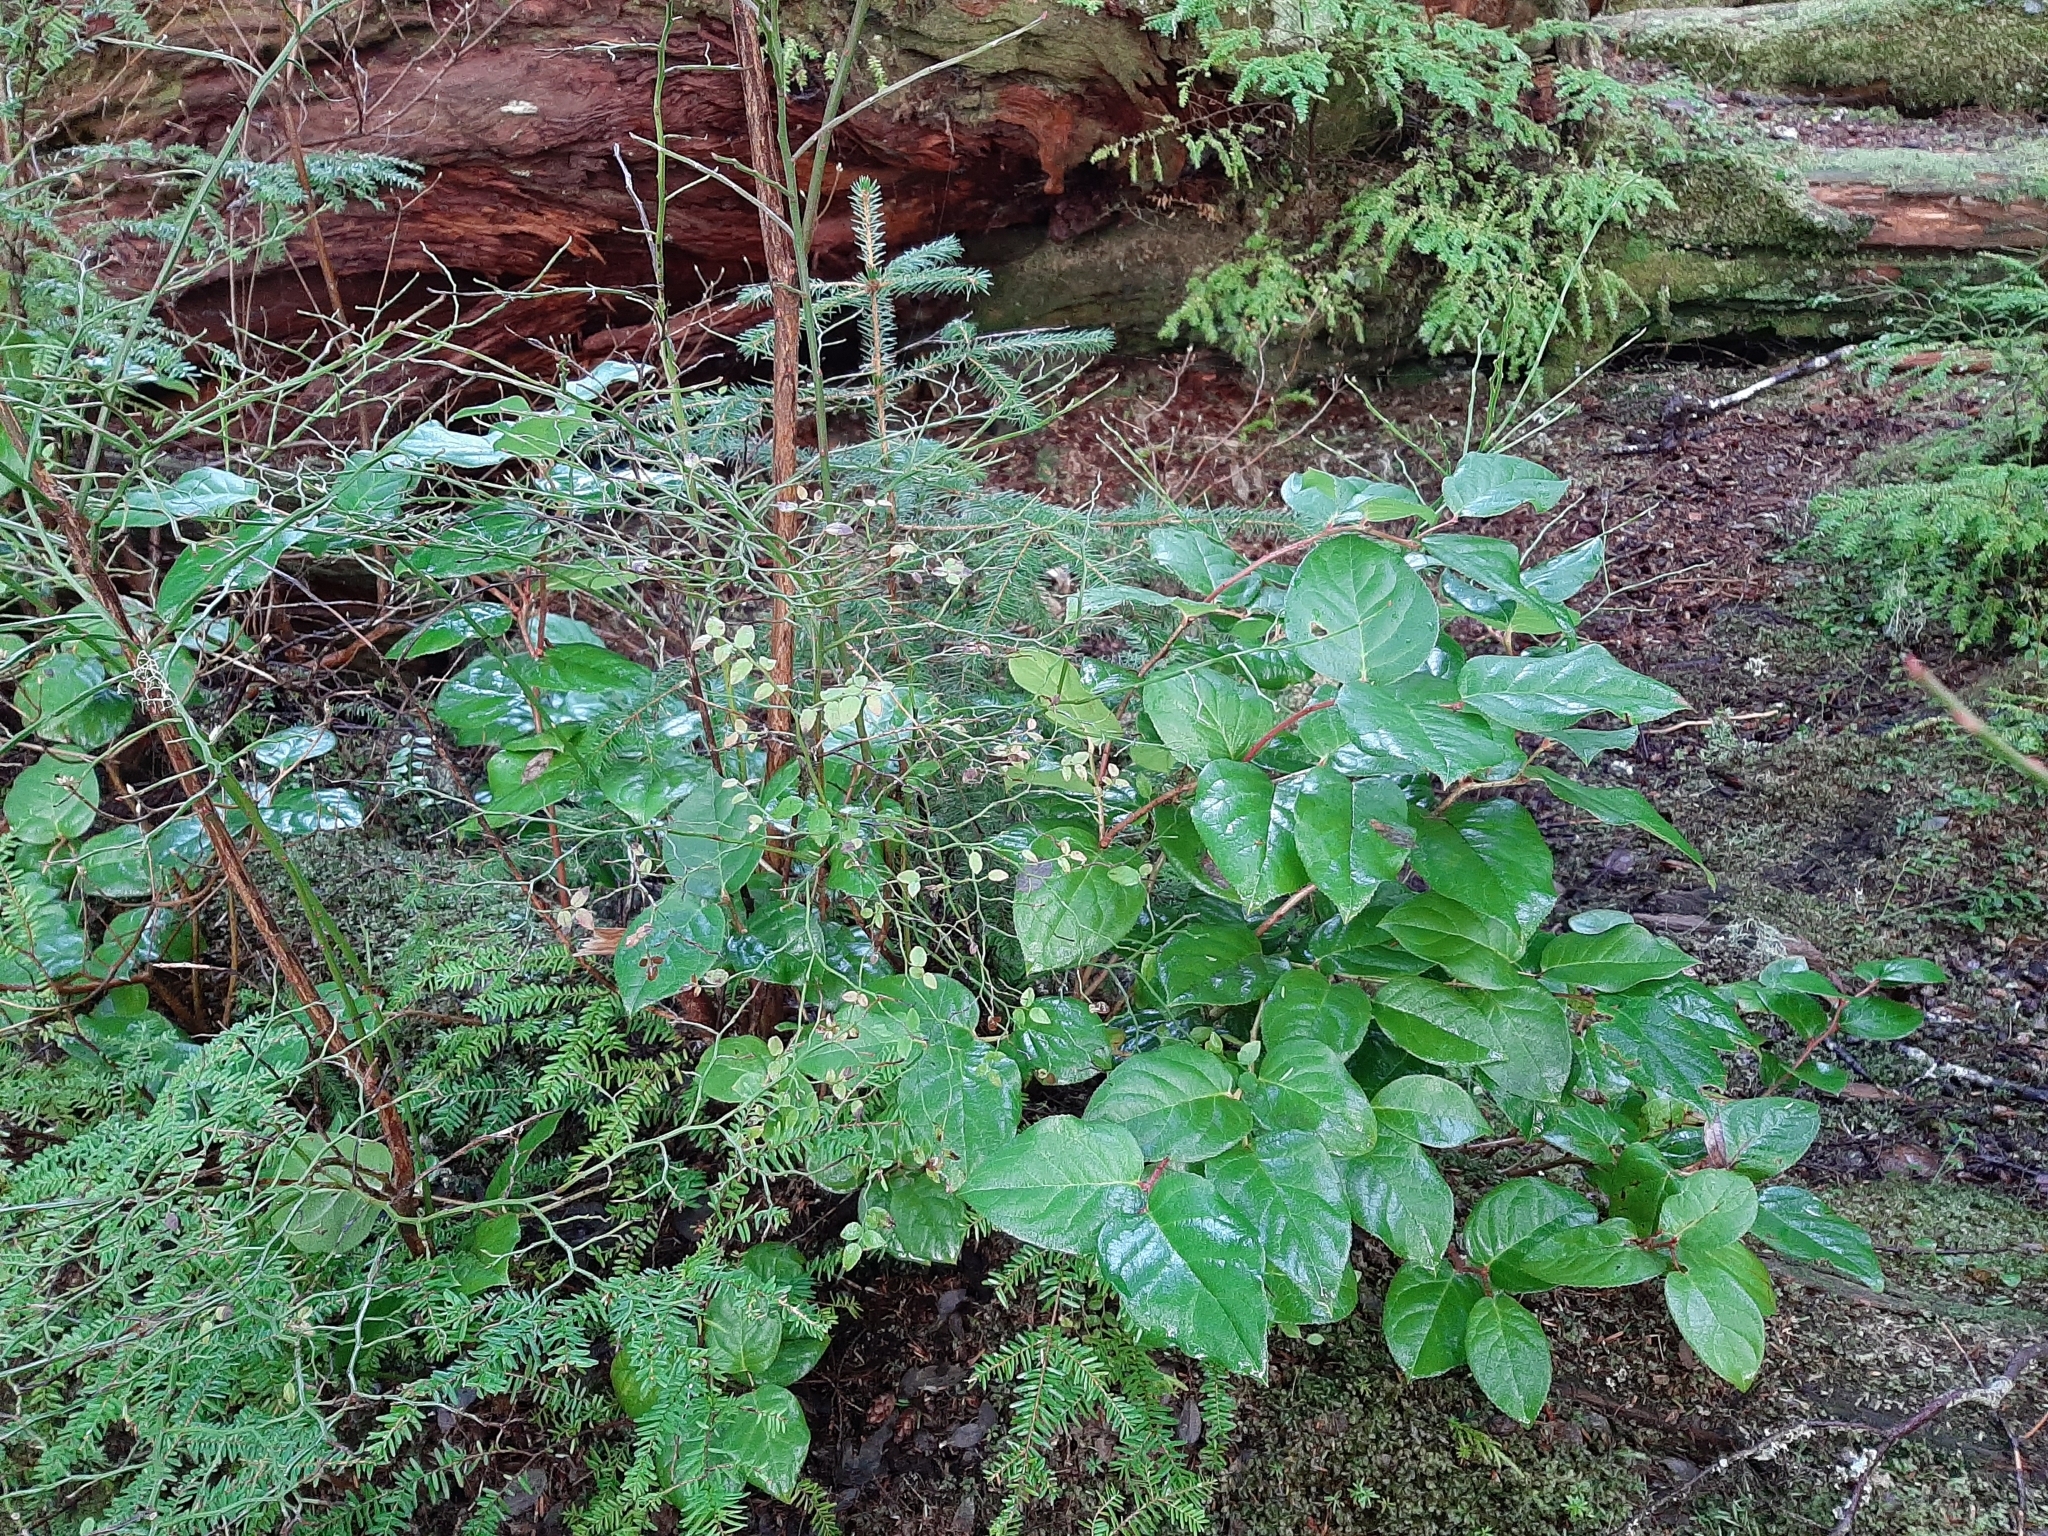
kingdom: Plantae
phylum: Tracheophyta
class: Magnoliopsida
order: Ericales
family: Ericaceae
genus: Gaultheria
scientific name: Gaultheria shallon
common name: Shallon
